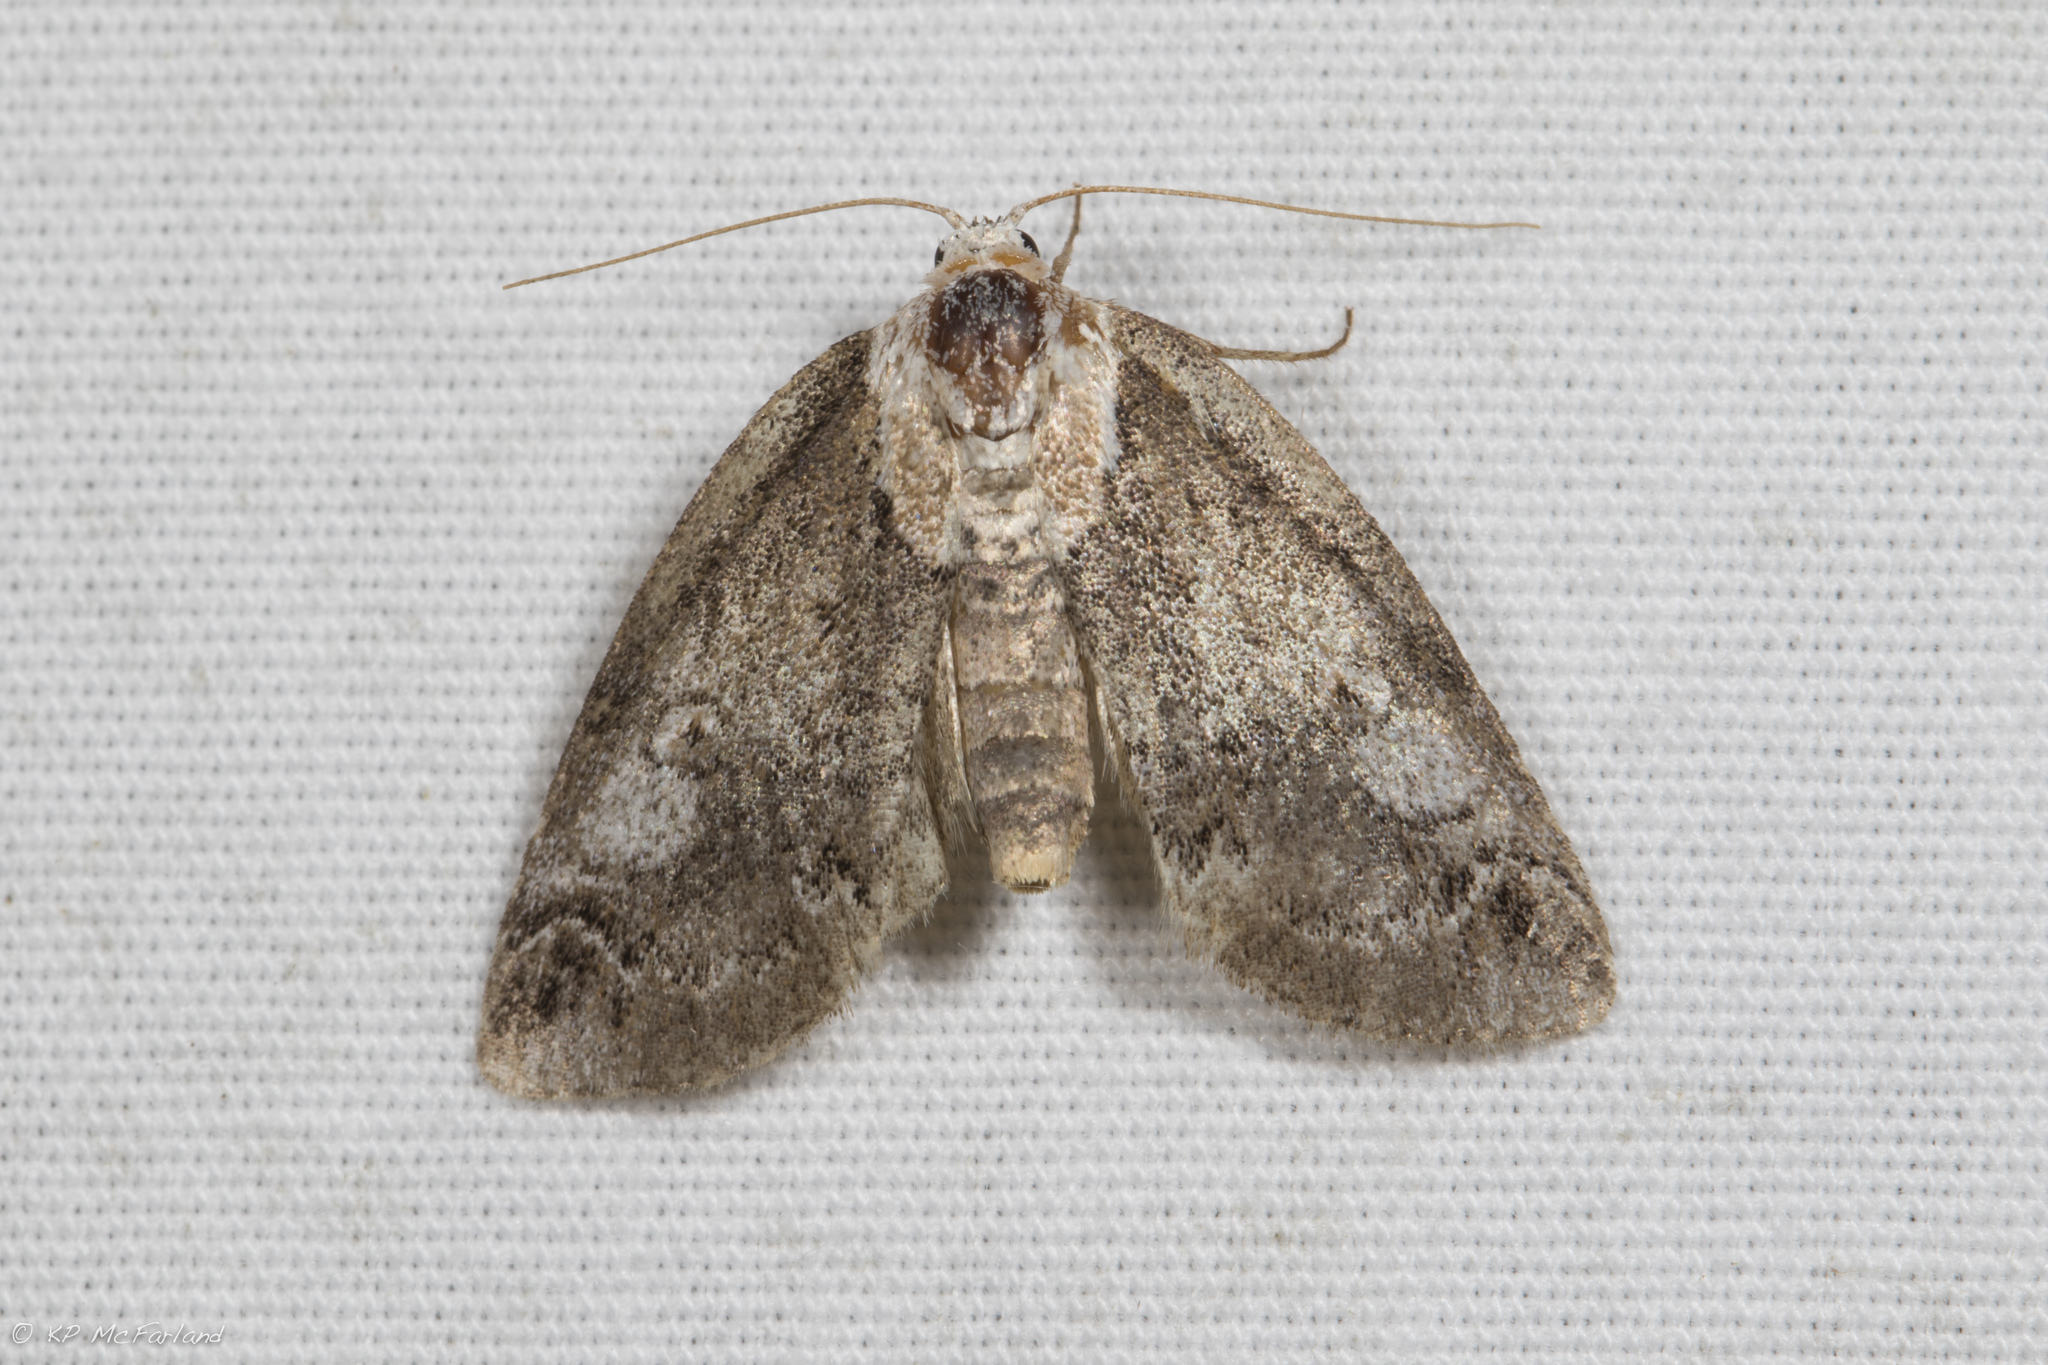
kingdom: Animalia
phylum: Arthropoda
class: Insecta
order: Lepidoptera
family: Nolidae
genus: Baileya
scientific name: Baileya ophthalmica
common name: Eyed baileya moth
